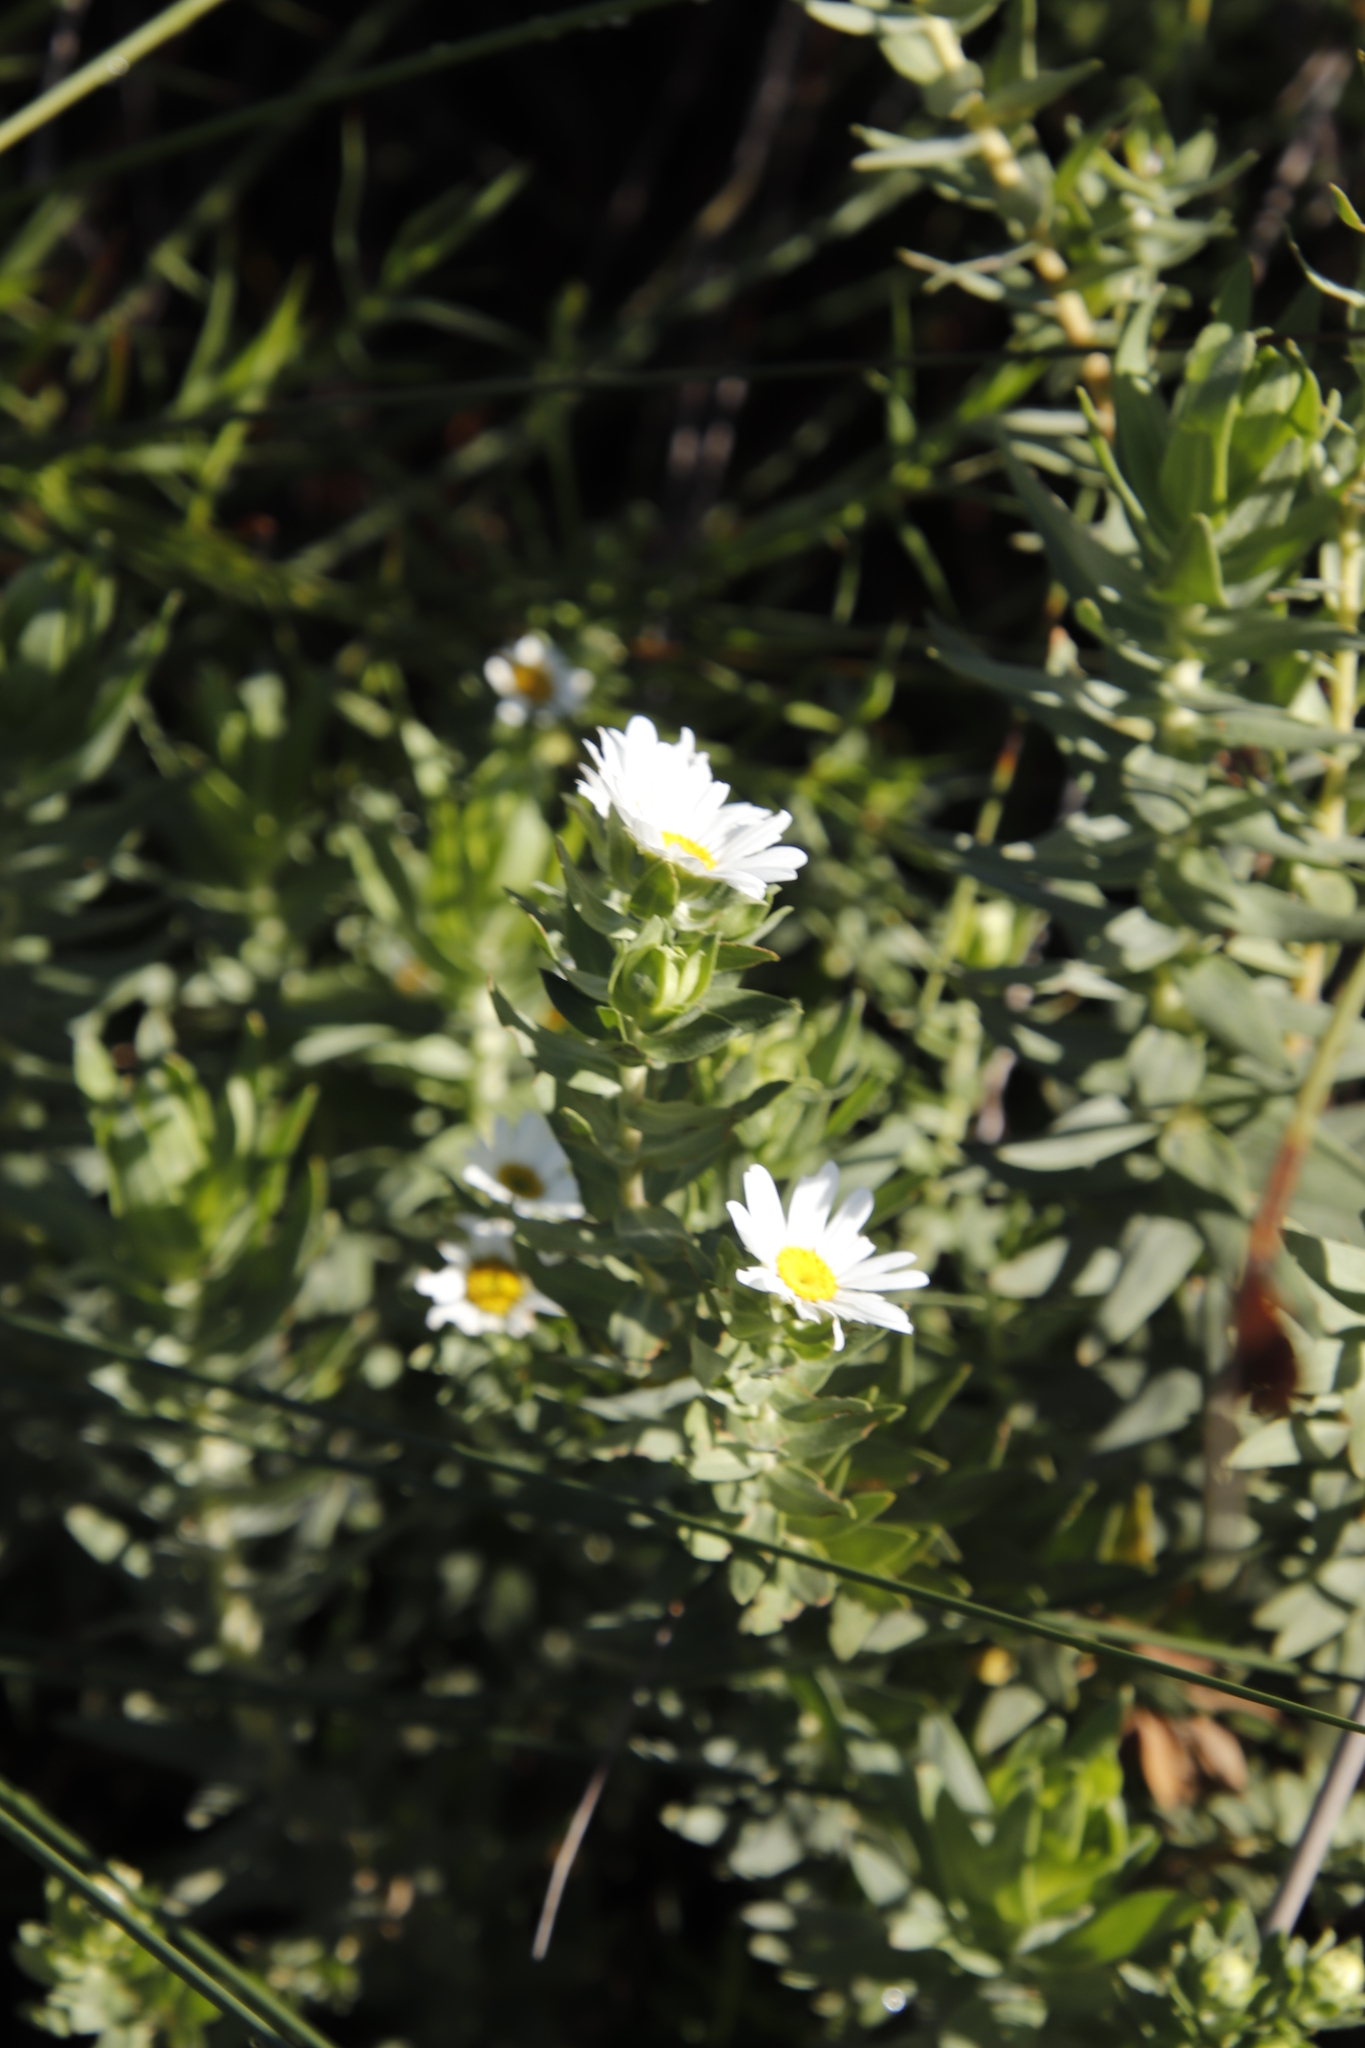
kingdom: Plantae
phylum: Tracheophyta
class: Magnoliopsida
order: Asterales
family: Asteraceae
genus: Osmitopsis
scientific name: Osmitopsis asteriscoides
